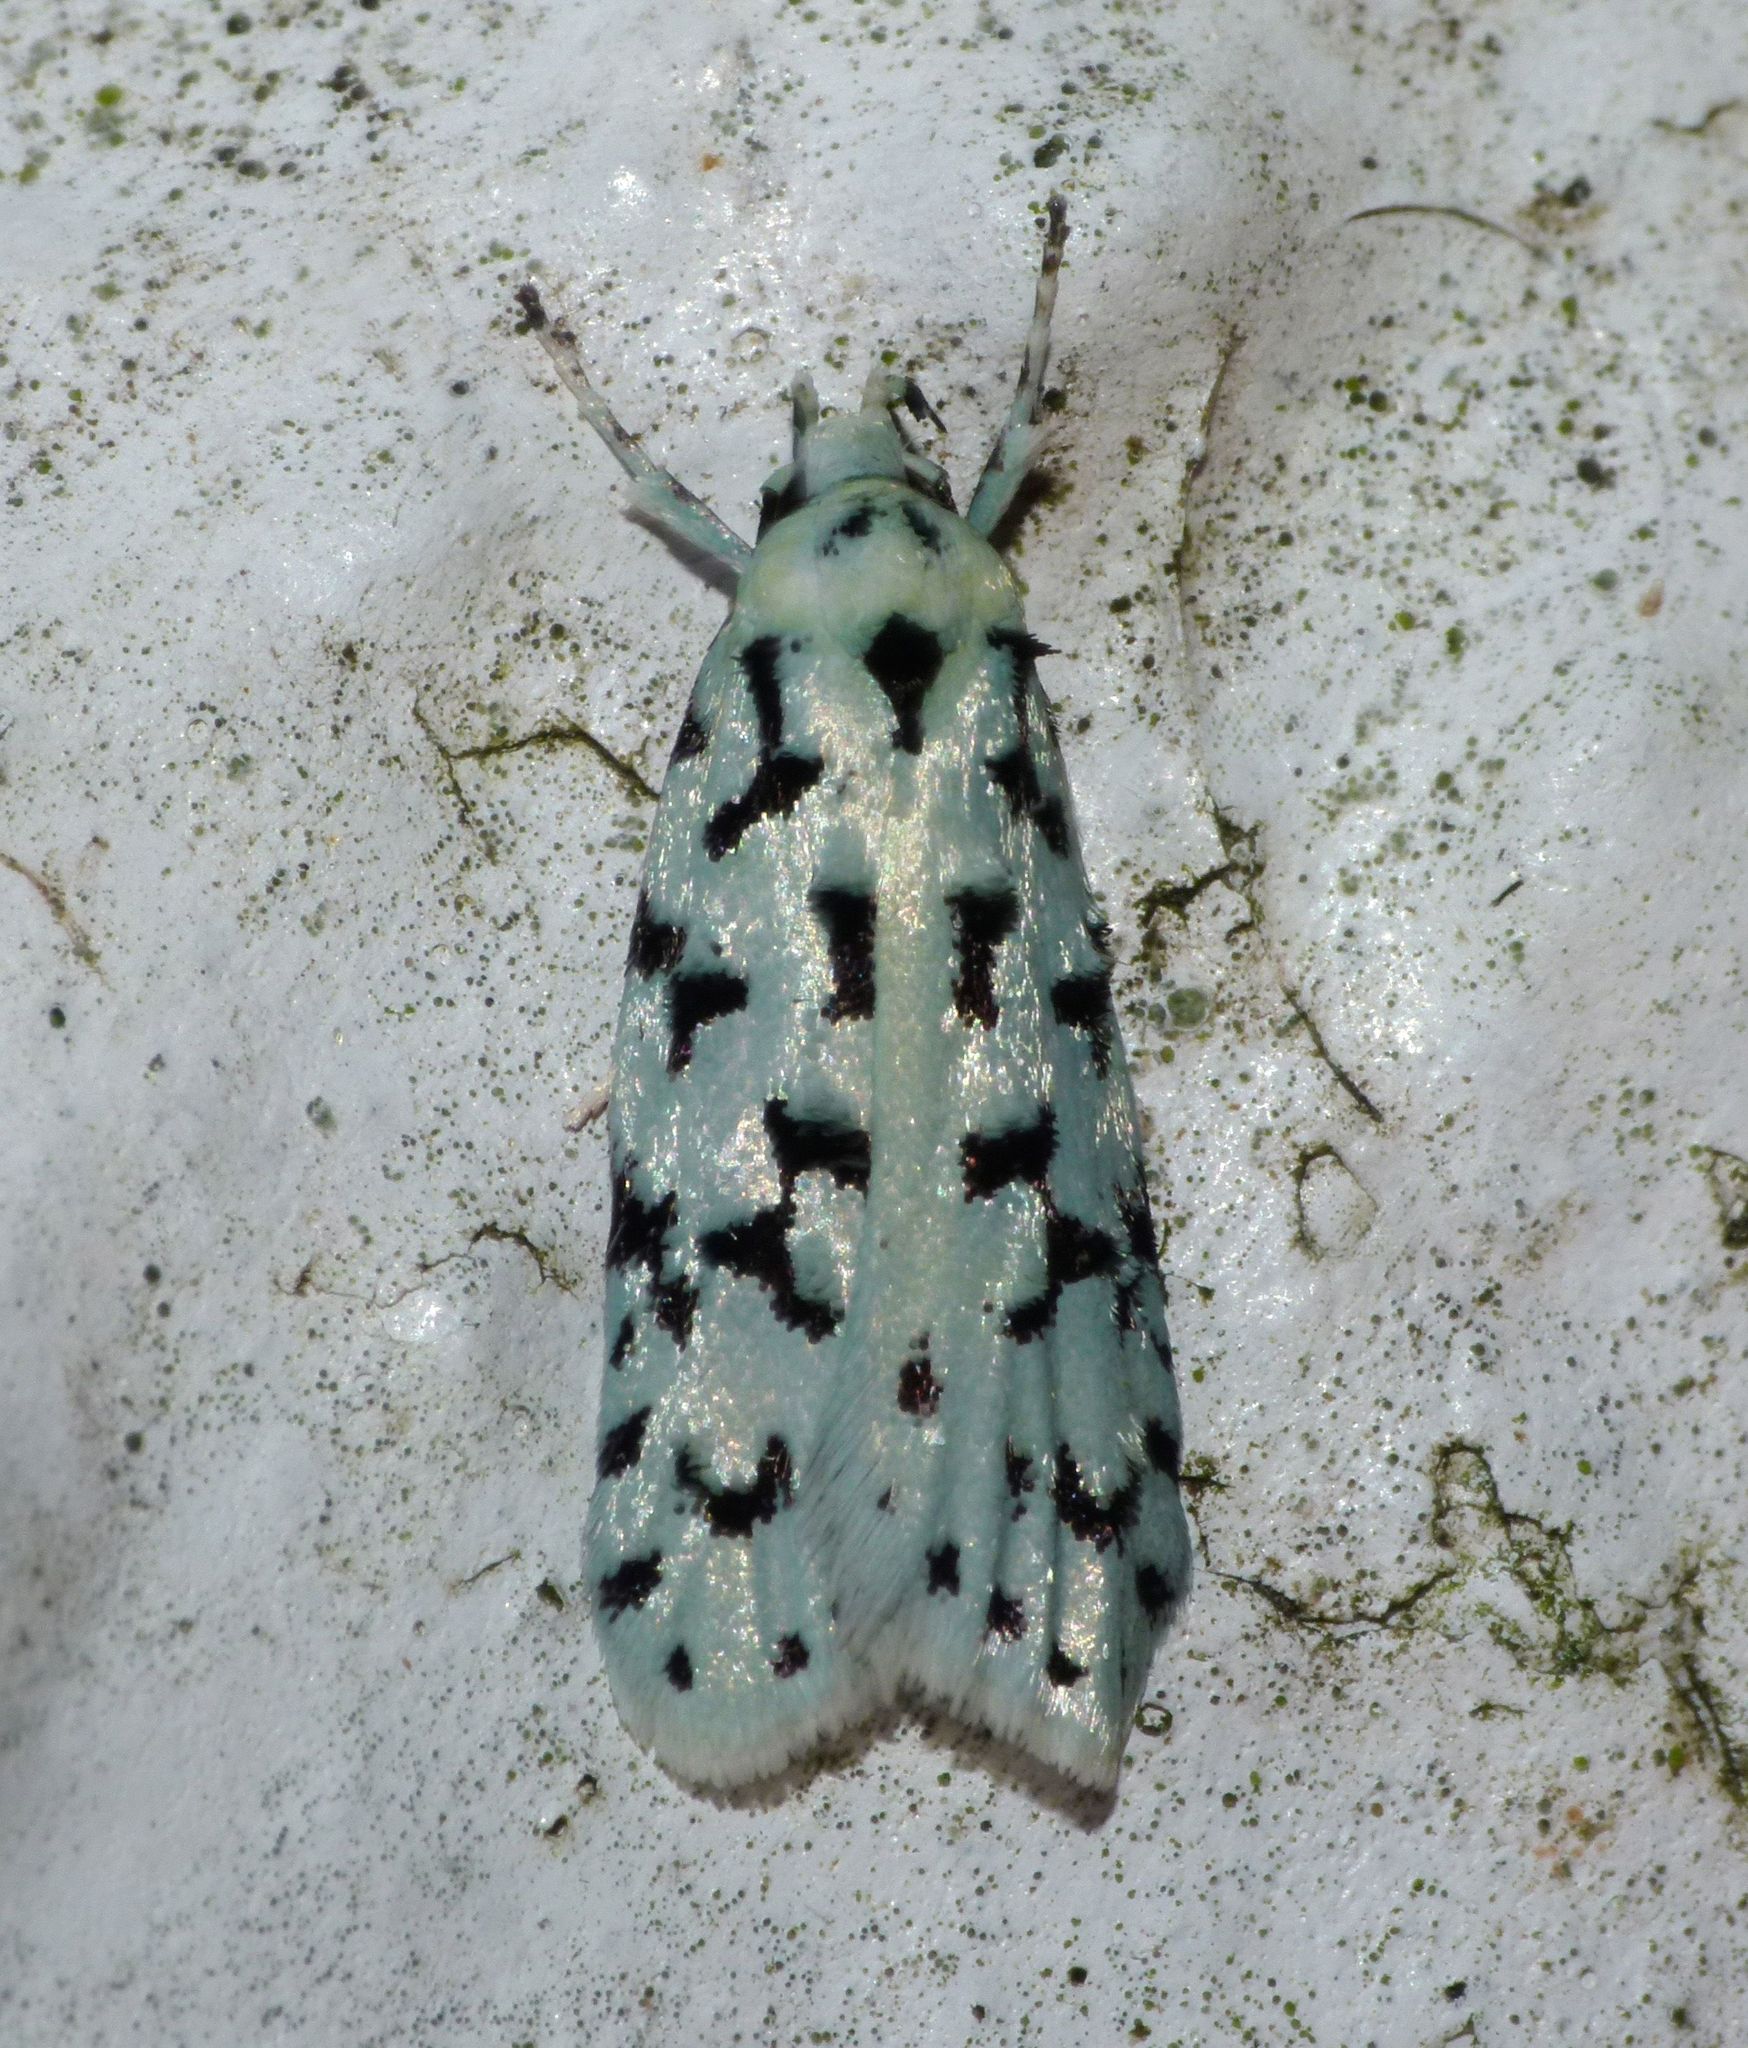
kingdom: Animalia
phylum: Arthropoda
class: Insecta
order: Lepidoptera
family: Oecophoridae
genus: Izatha
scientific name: Izatha huttoni
